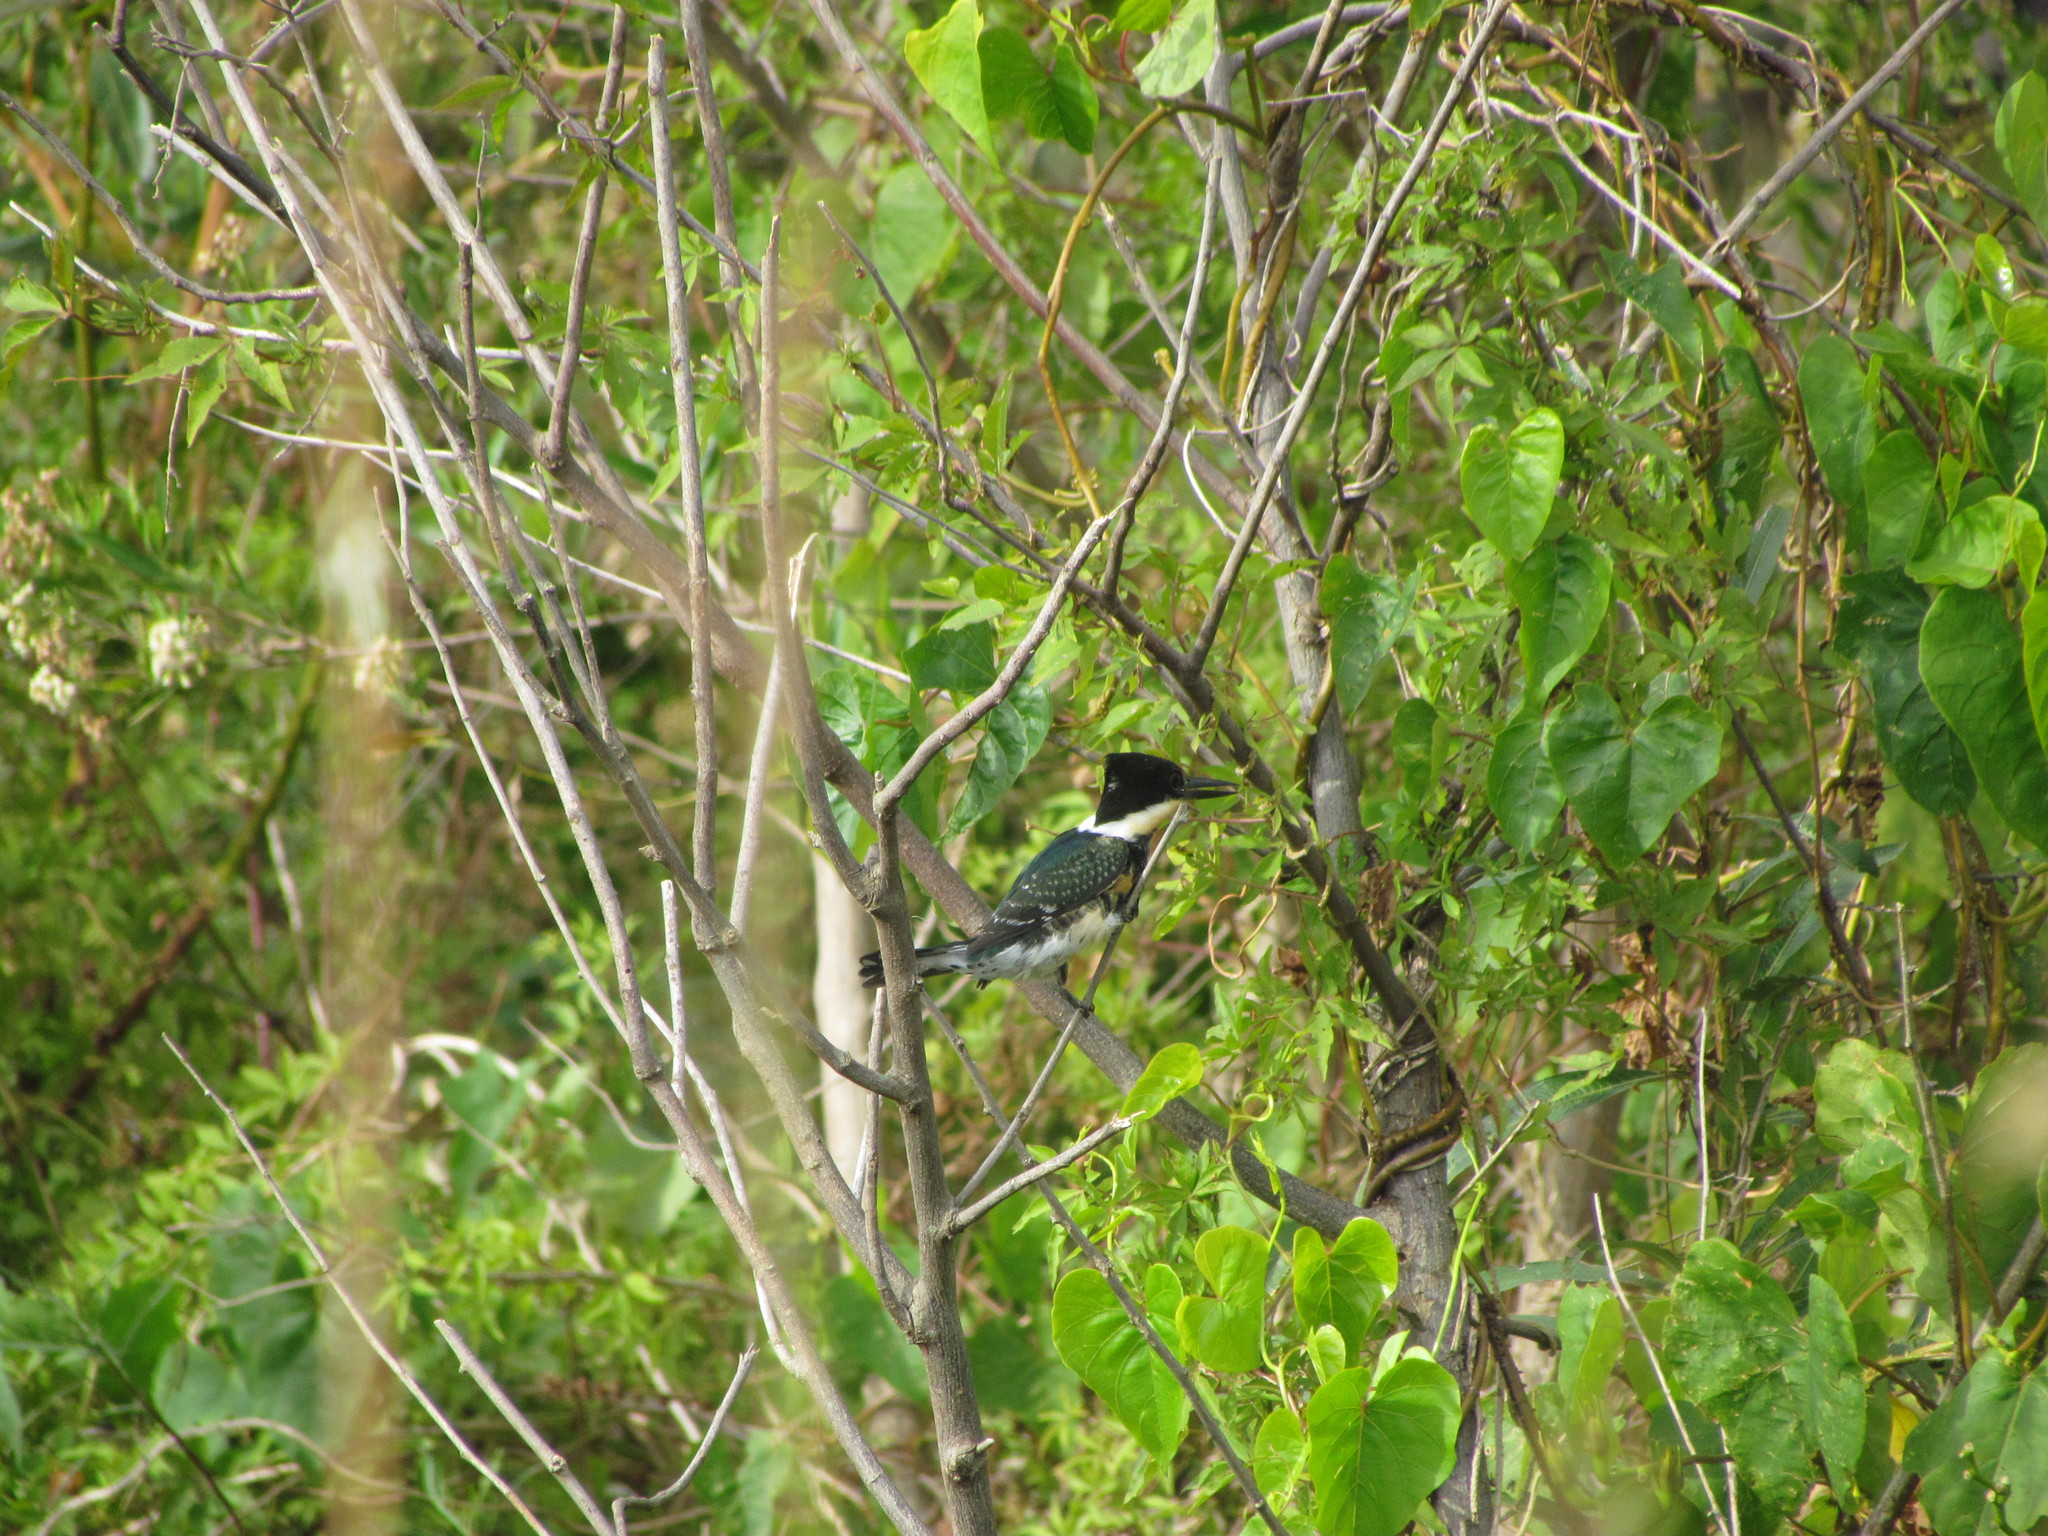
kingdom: Animalia
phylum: Chordata
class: Aves
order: Coraciiformes
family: Alcedinidae
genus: Chloroceryle
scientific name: Chloroceryle americana
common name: Green kingfisher
